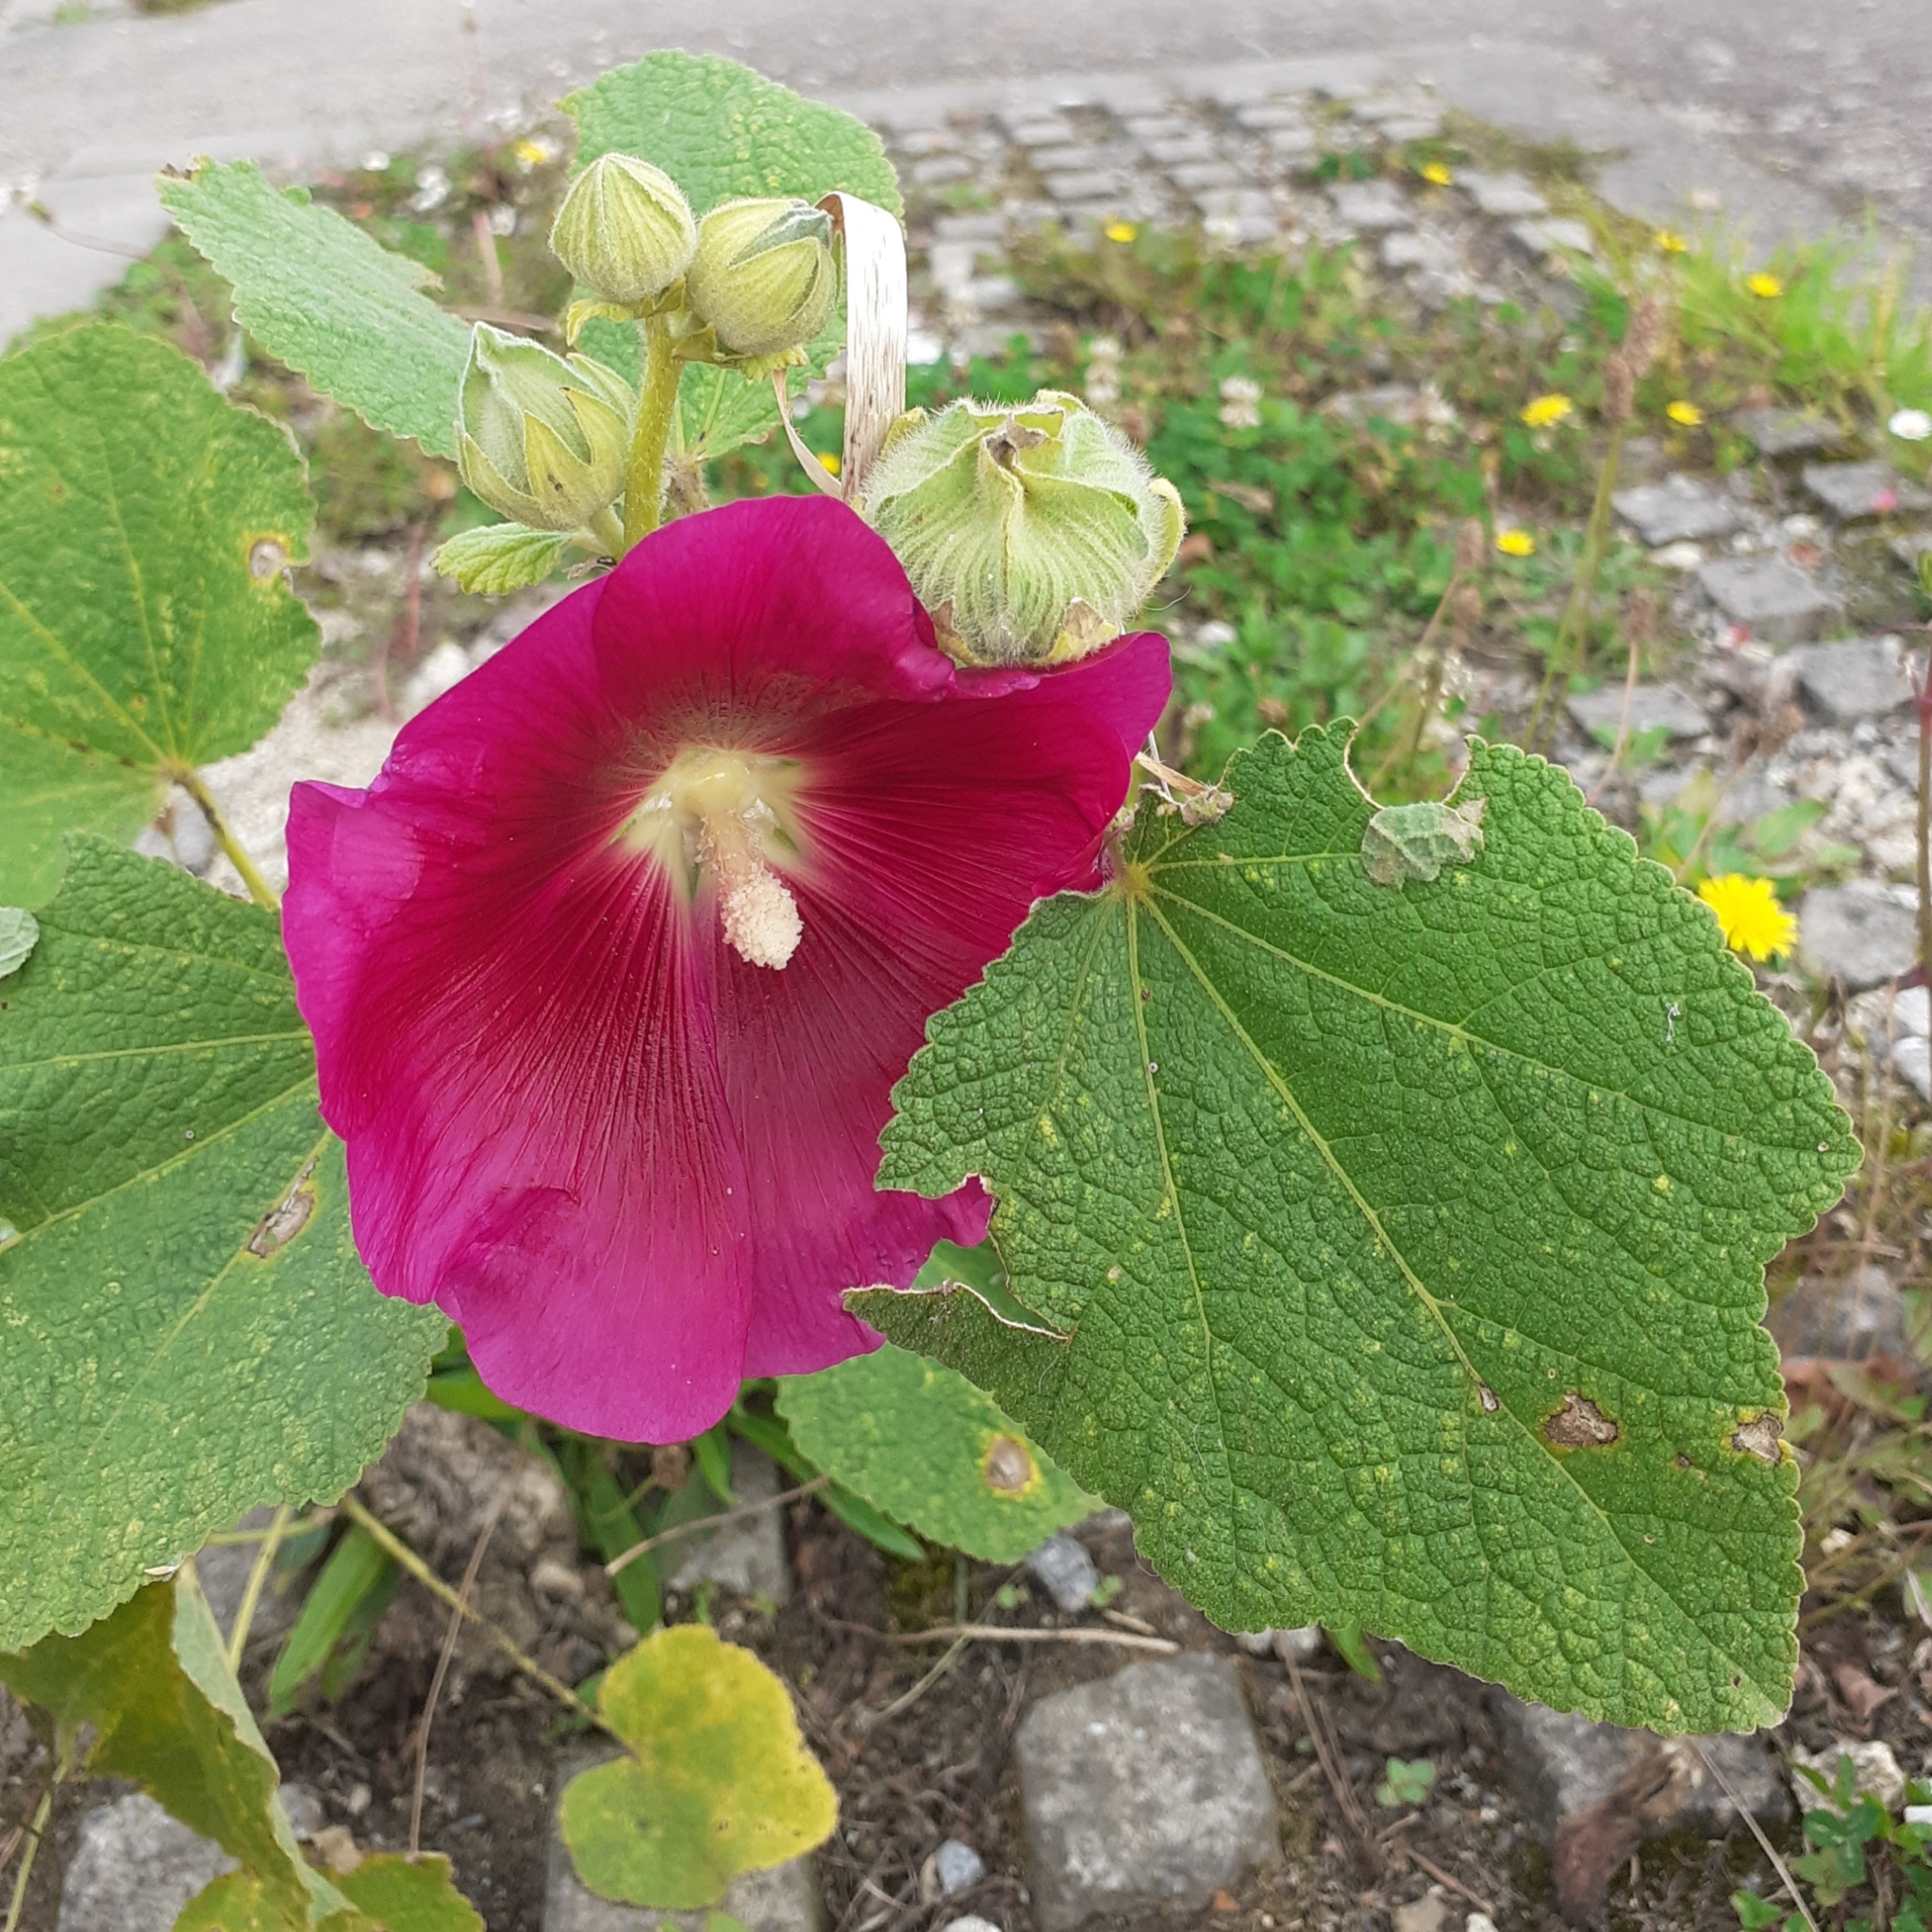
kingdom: Plantae
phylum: Tracheophyta
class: Magnoliopsida
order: Malvales
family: Malvaceae
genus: Alcea
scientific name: Alcea rosea
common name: Hollyhock
